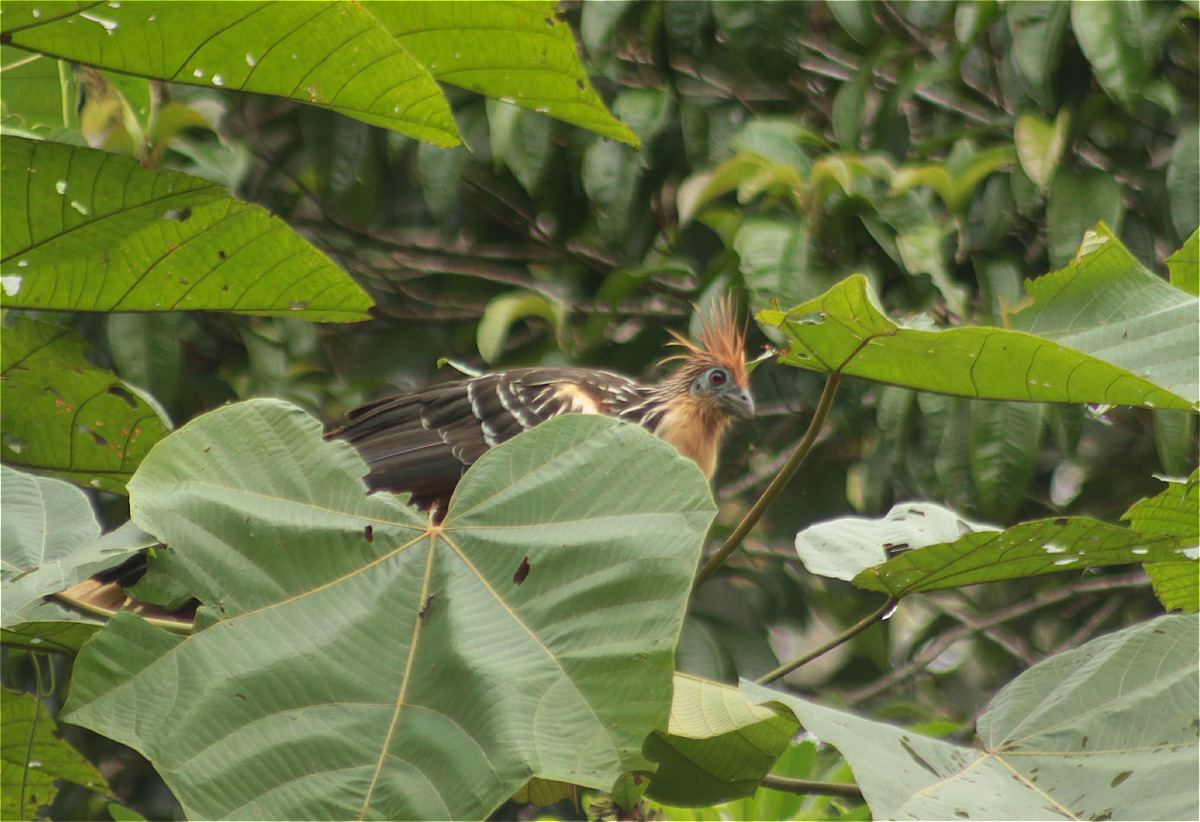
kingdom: Animalia
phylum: Chordata
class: Aves
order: Opisthocomiformes
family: Opisthocomidae
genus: Opisthocomus
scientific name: Opisthocomus hoazin
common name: Hoatzin
